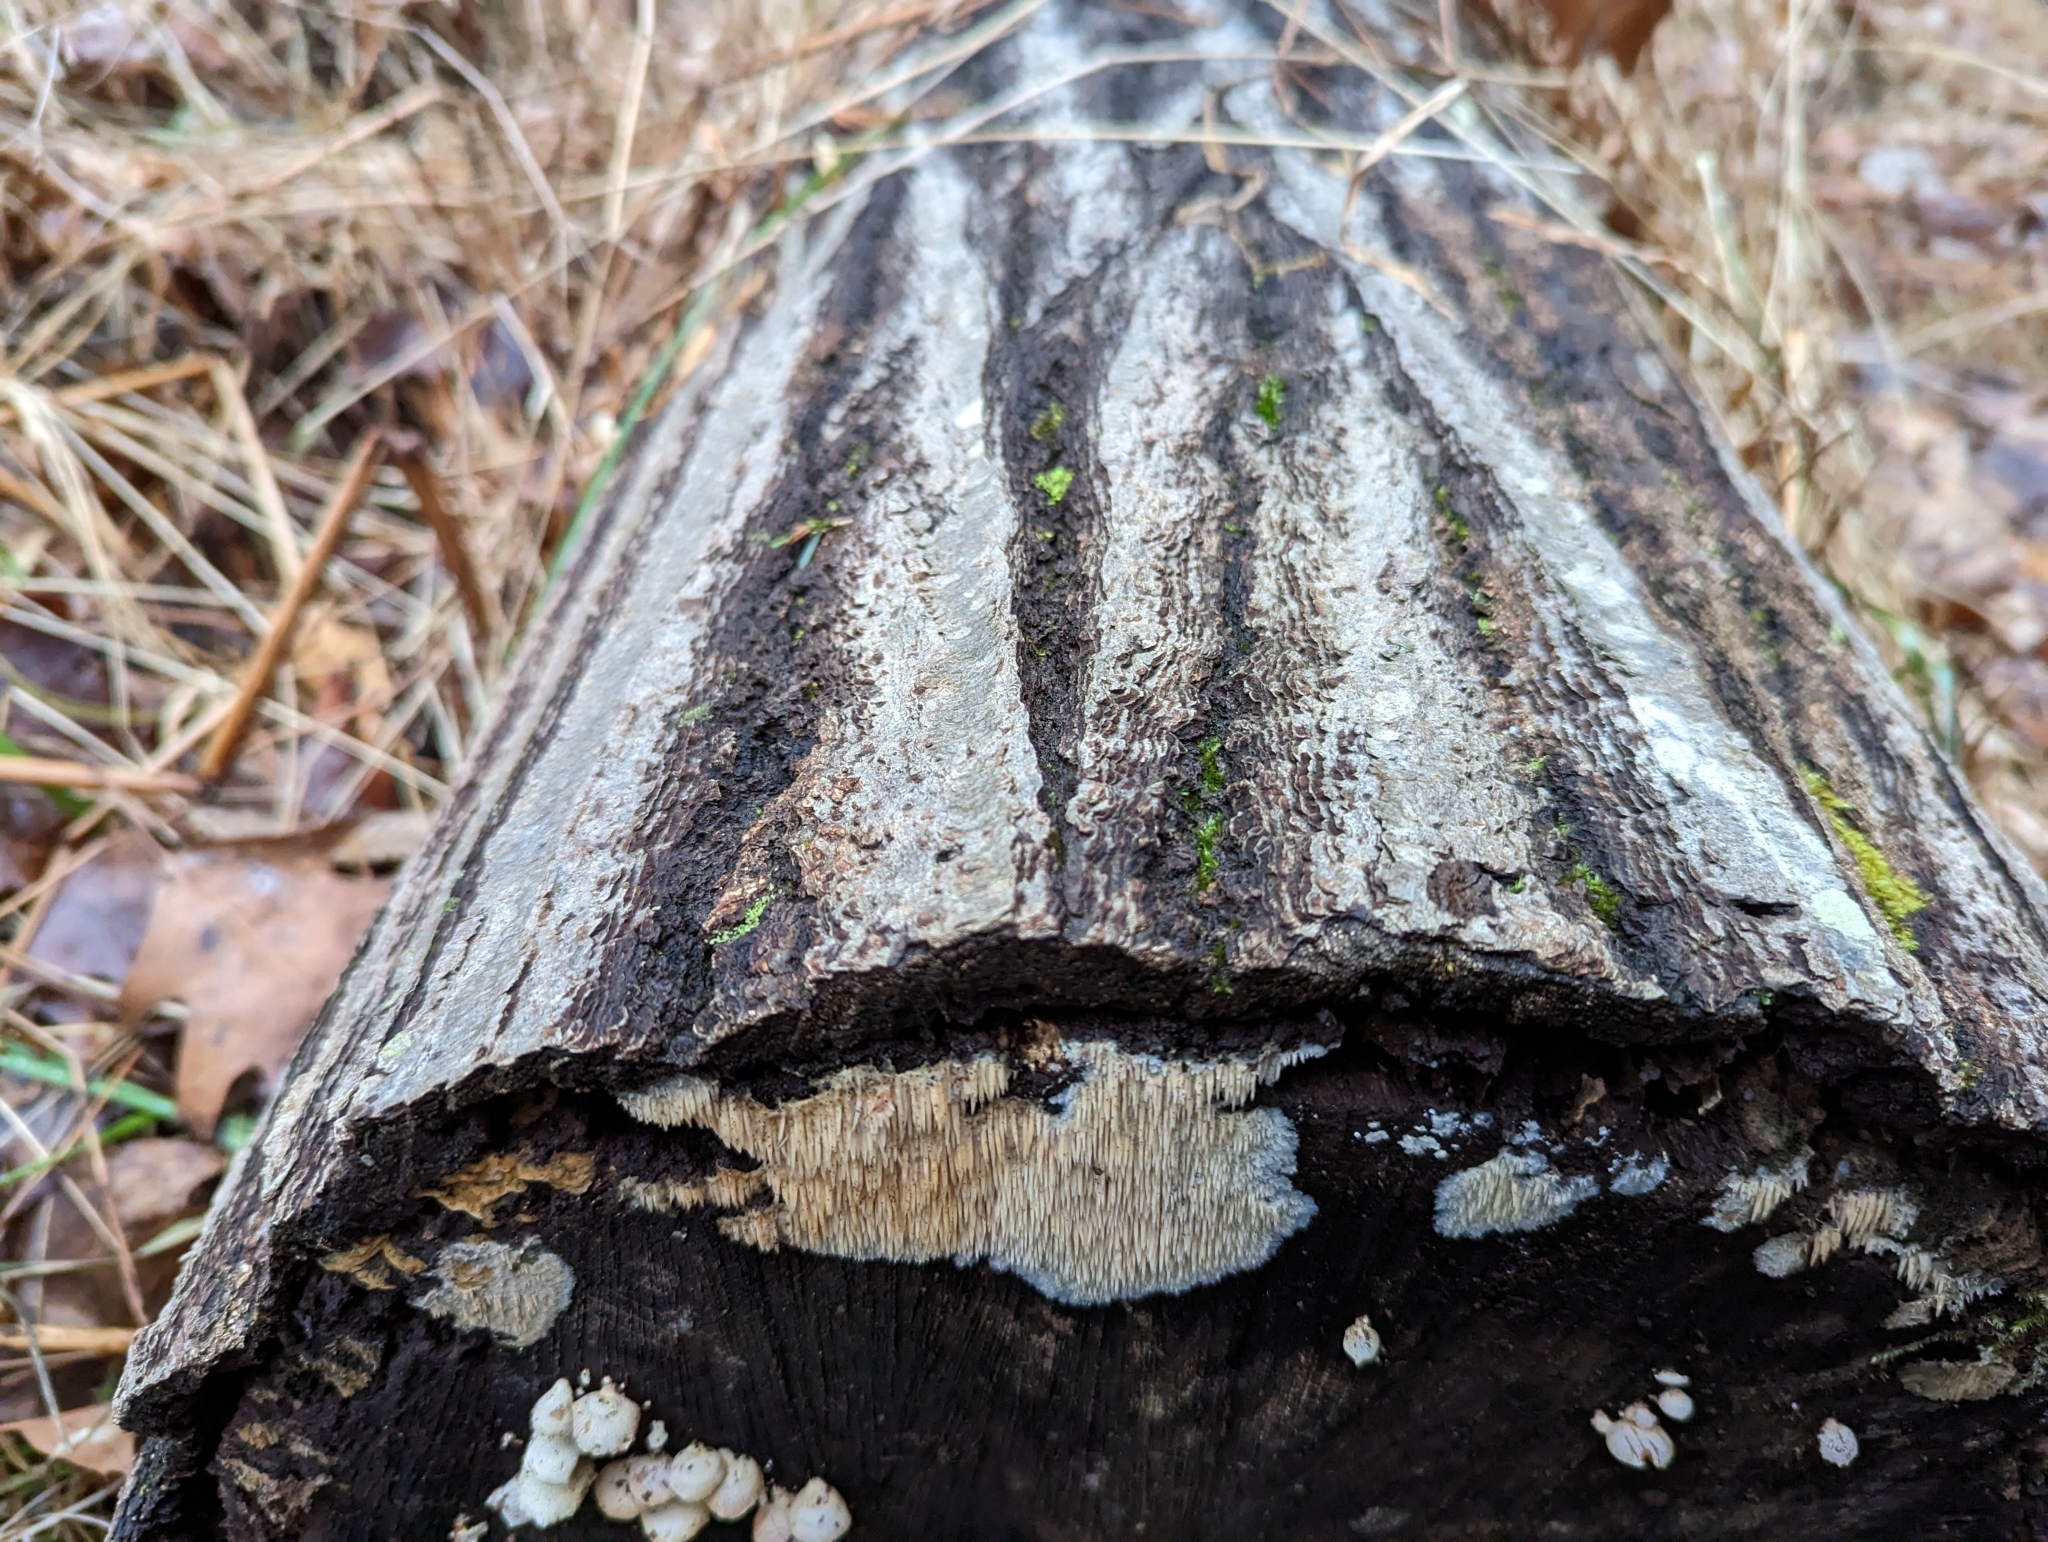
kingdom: Fungi
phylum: Basidiomycota
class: Agaricomycetes
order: Agaricales
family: Radulomycetaceae
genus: Radulomyces
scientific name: Radulomyces copelandii
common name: Asian beauty
